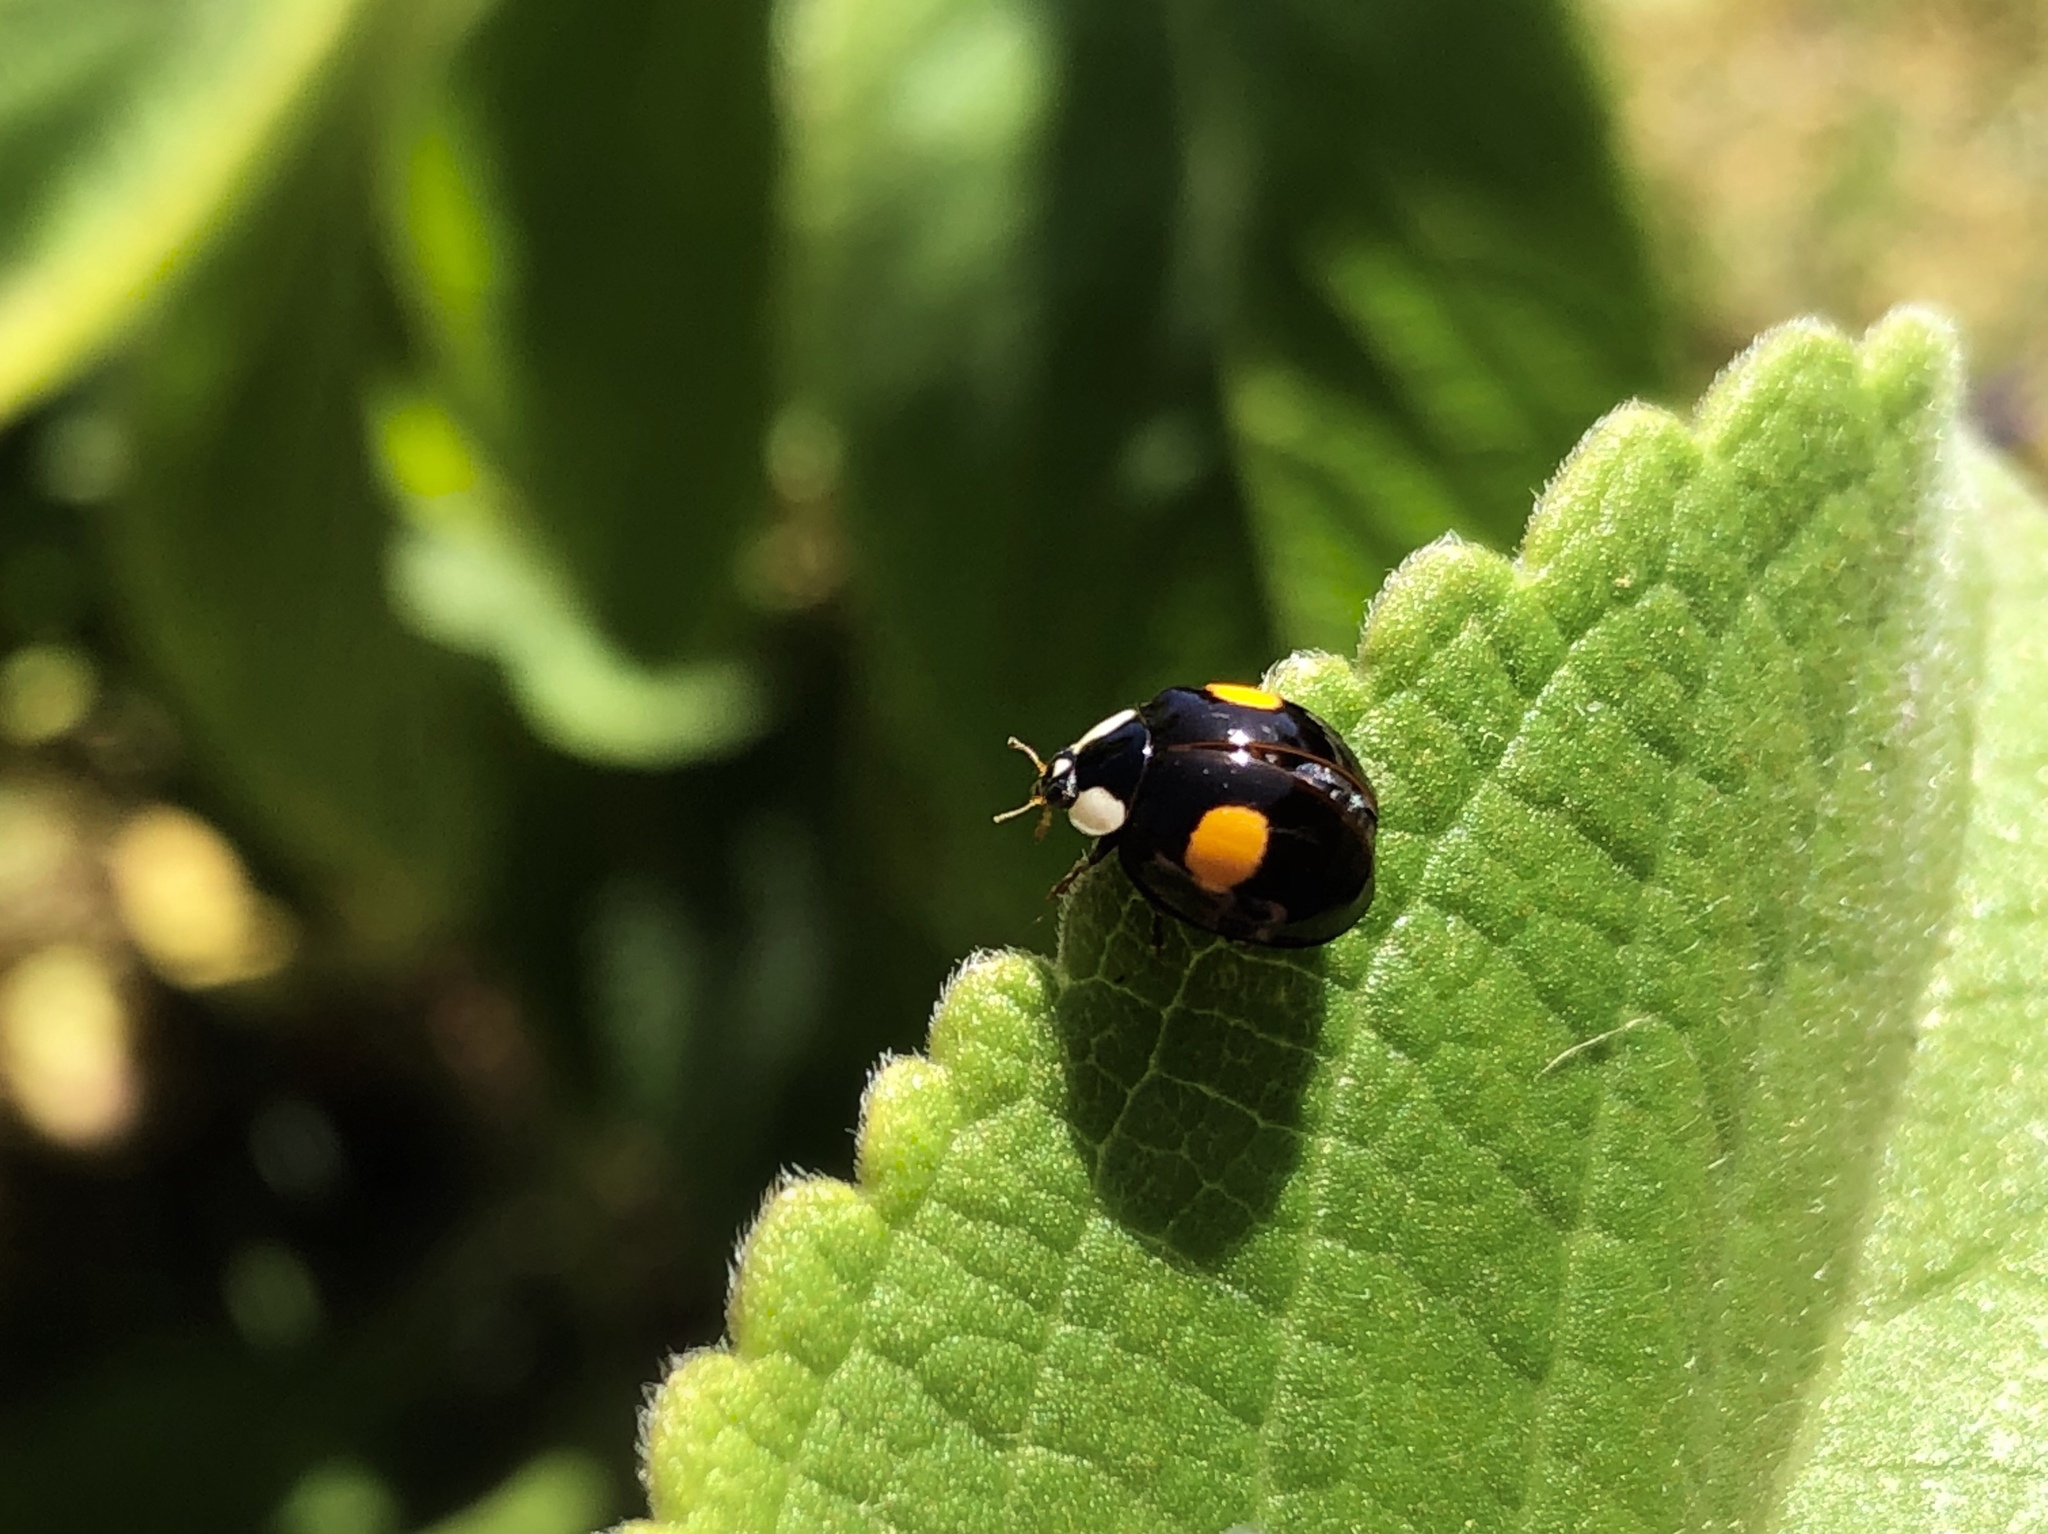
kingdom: Animalia
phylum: Arthropoda
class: Insecta
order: Coleoptera
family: Coccinellidae
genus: Harmonia
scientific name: Harmonia axyridis
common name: Harlequin ladybird
